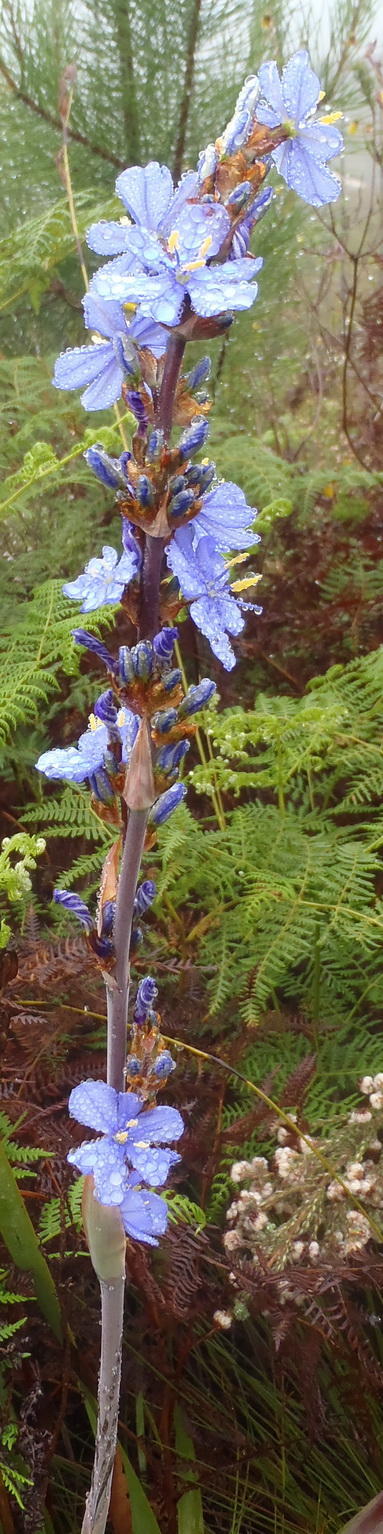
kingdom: Plantae
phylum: Tracheophyta
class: Liliopsida
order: Asparagales
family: Iridaceae
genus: Aristea
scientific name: Aristea bakeri
